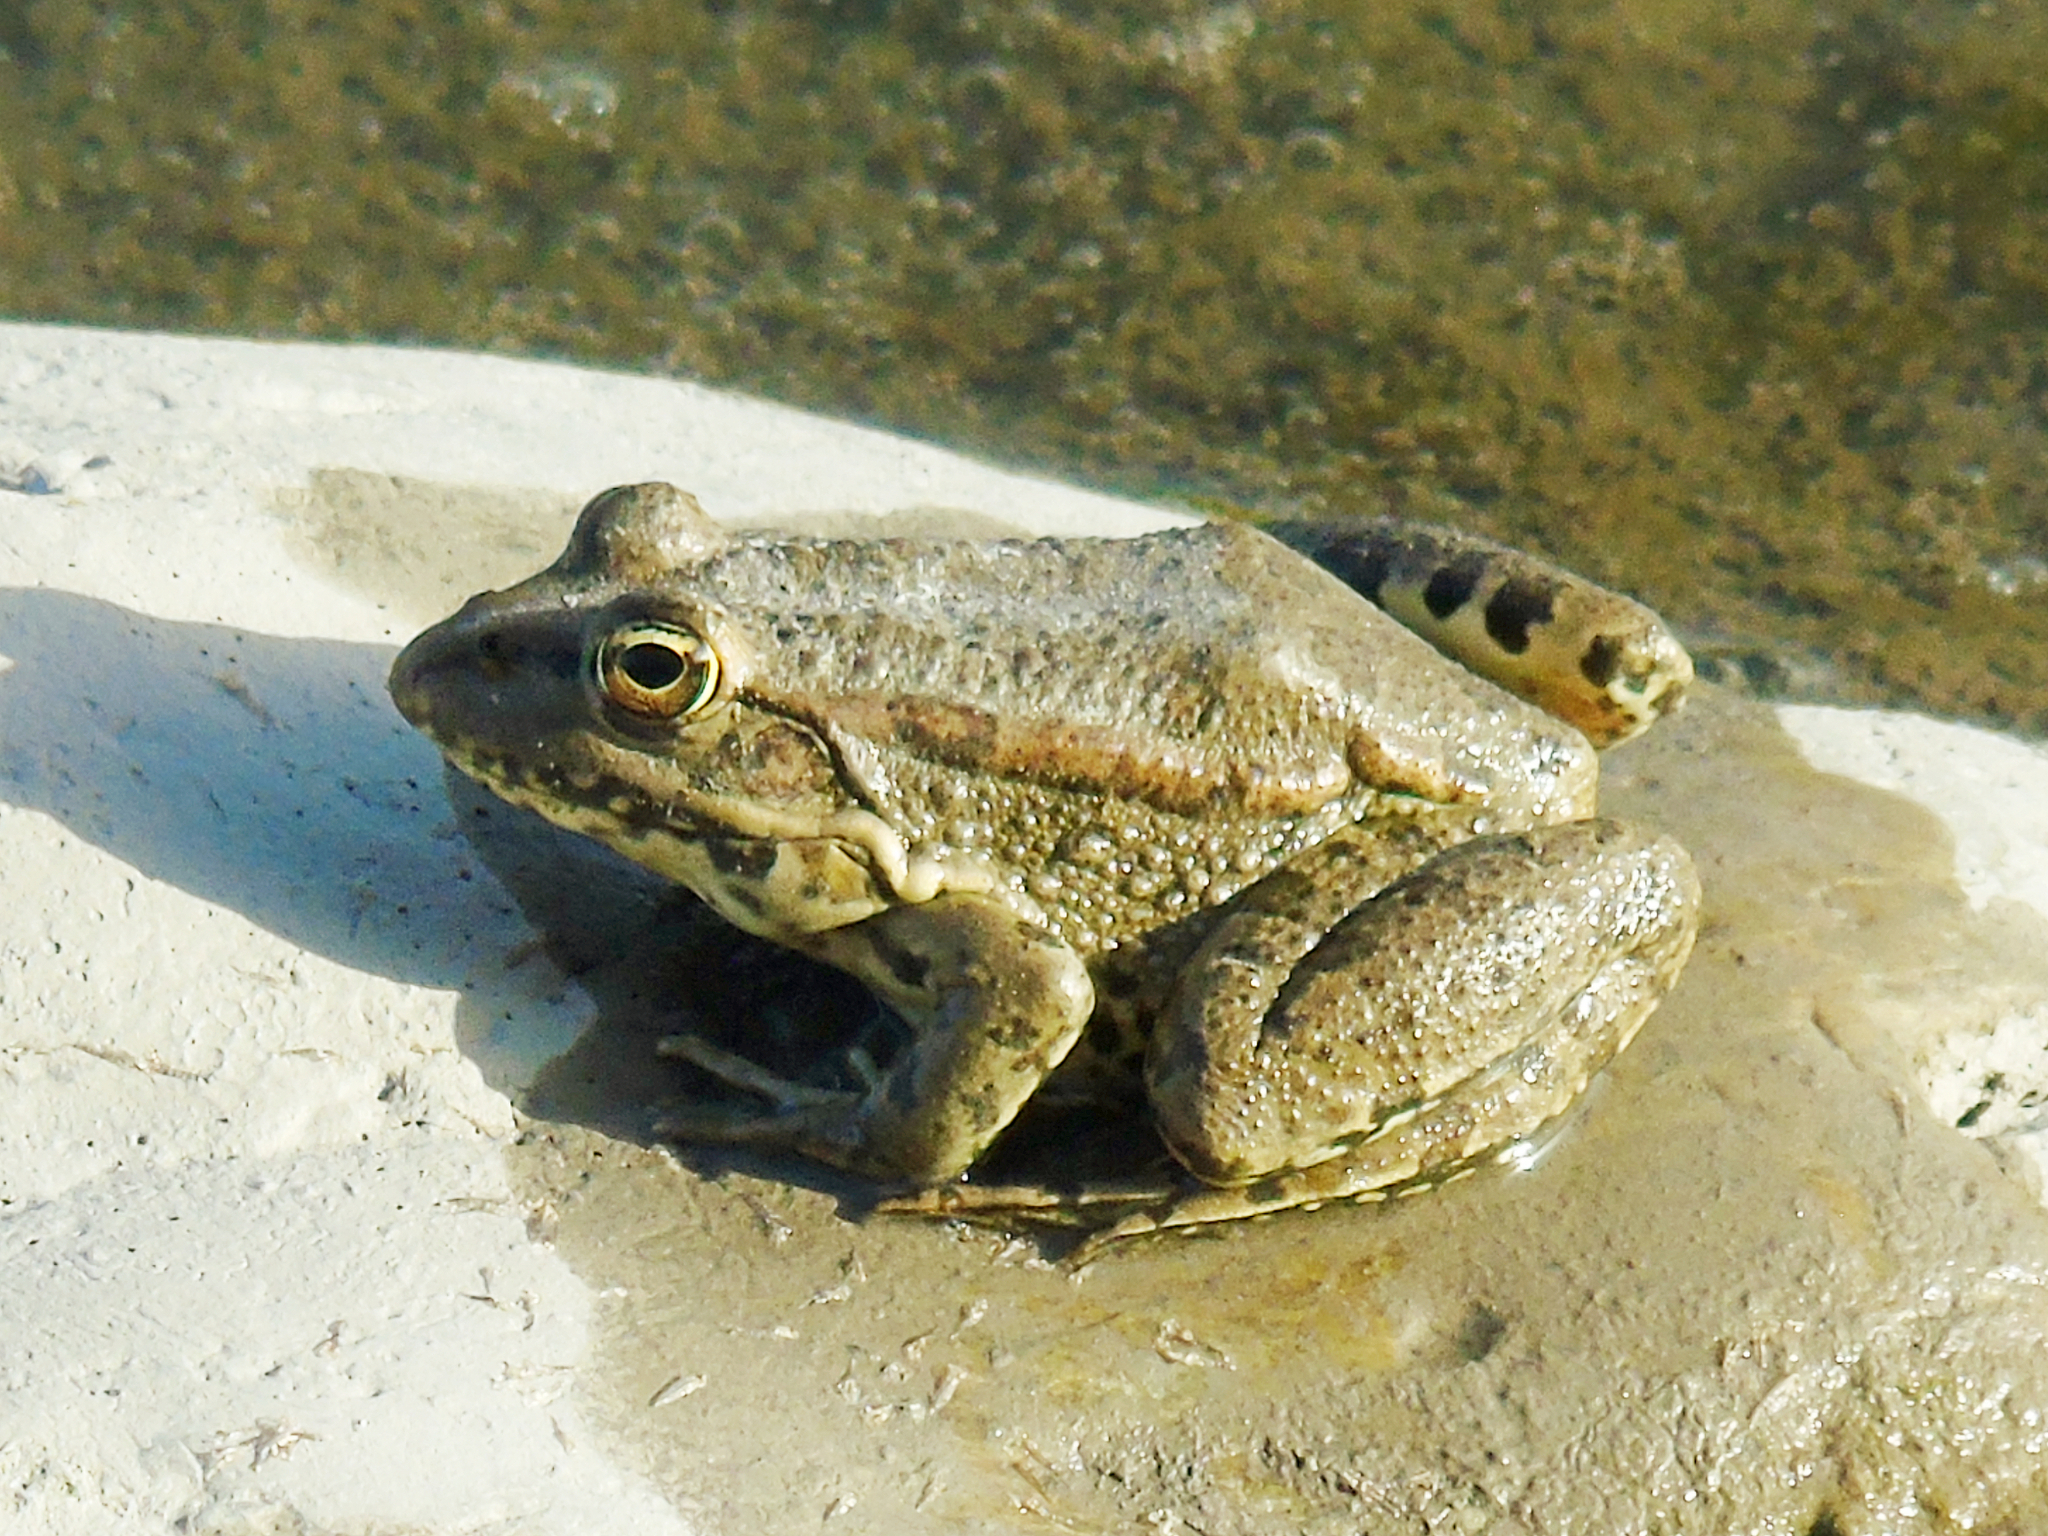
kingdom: Animalia
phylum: Chordata
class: Amphibia
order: Anura
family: Ranidae
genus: Pelophylax
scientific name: Pelophylax ridibundus
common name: Marsh frog
